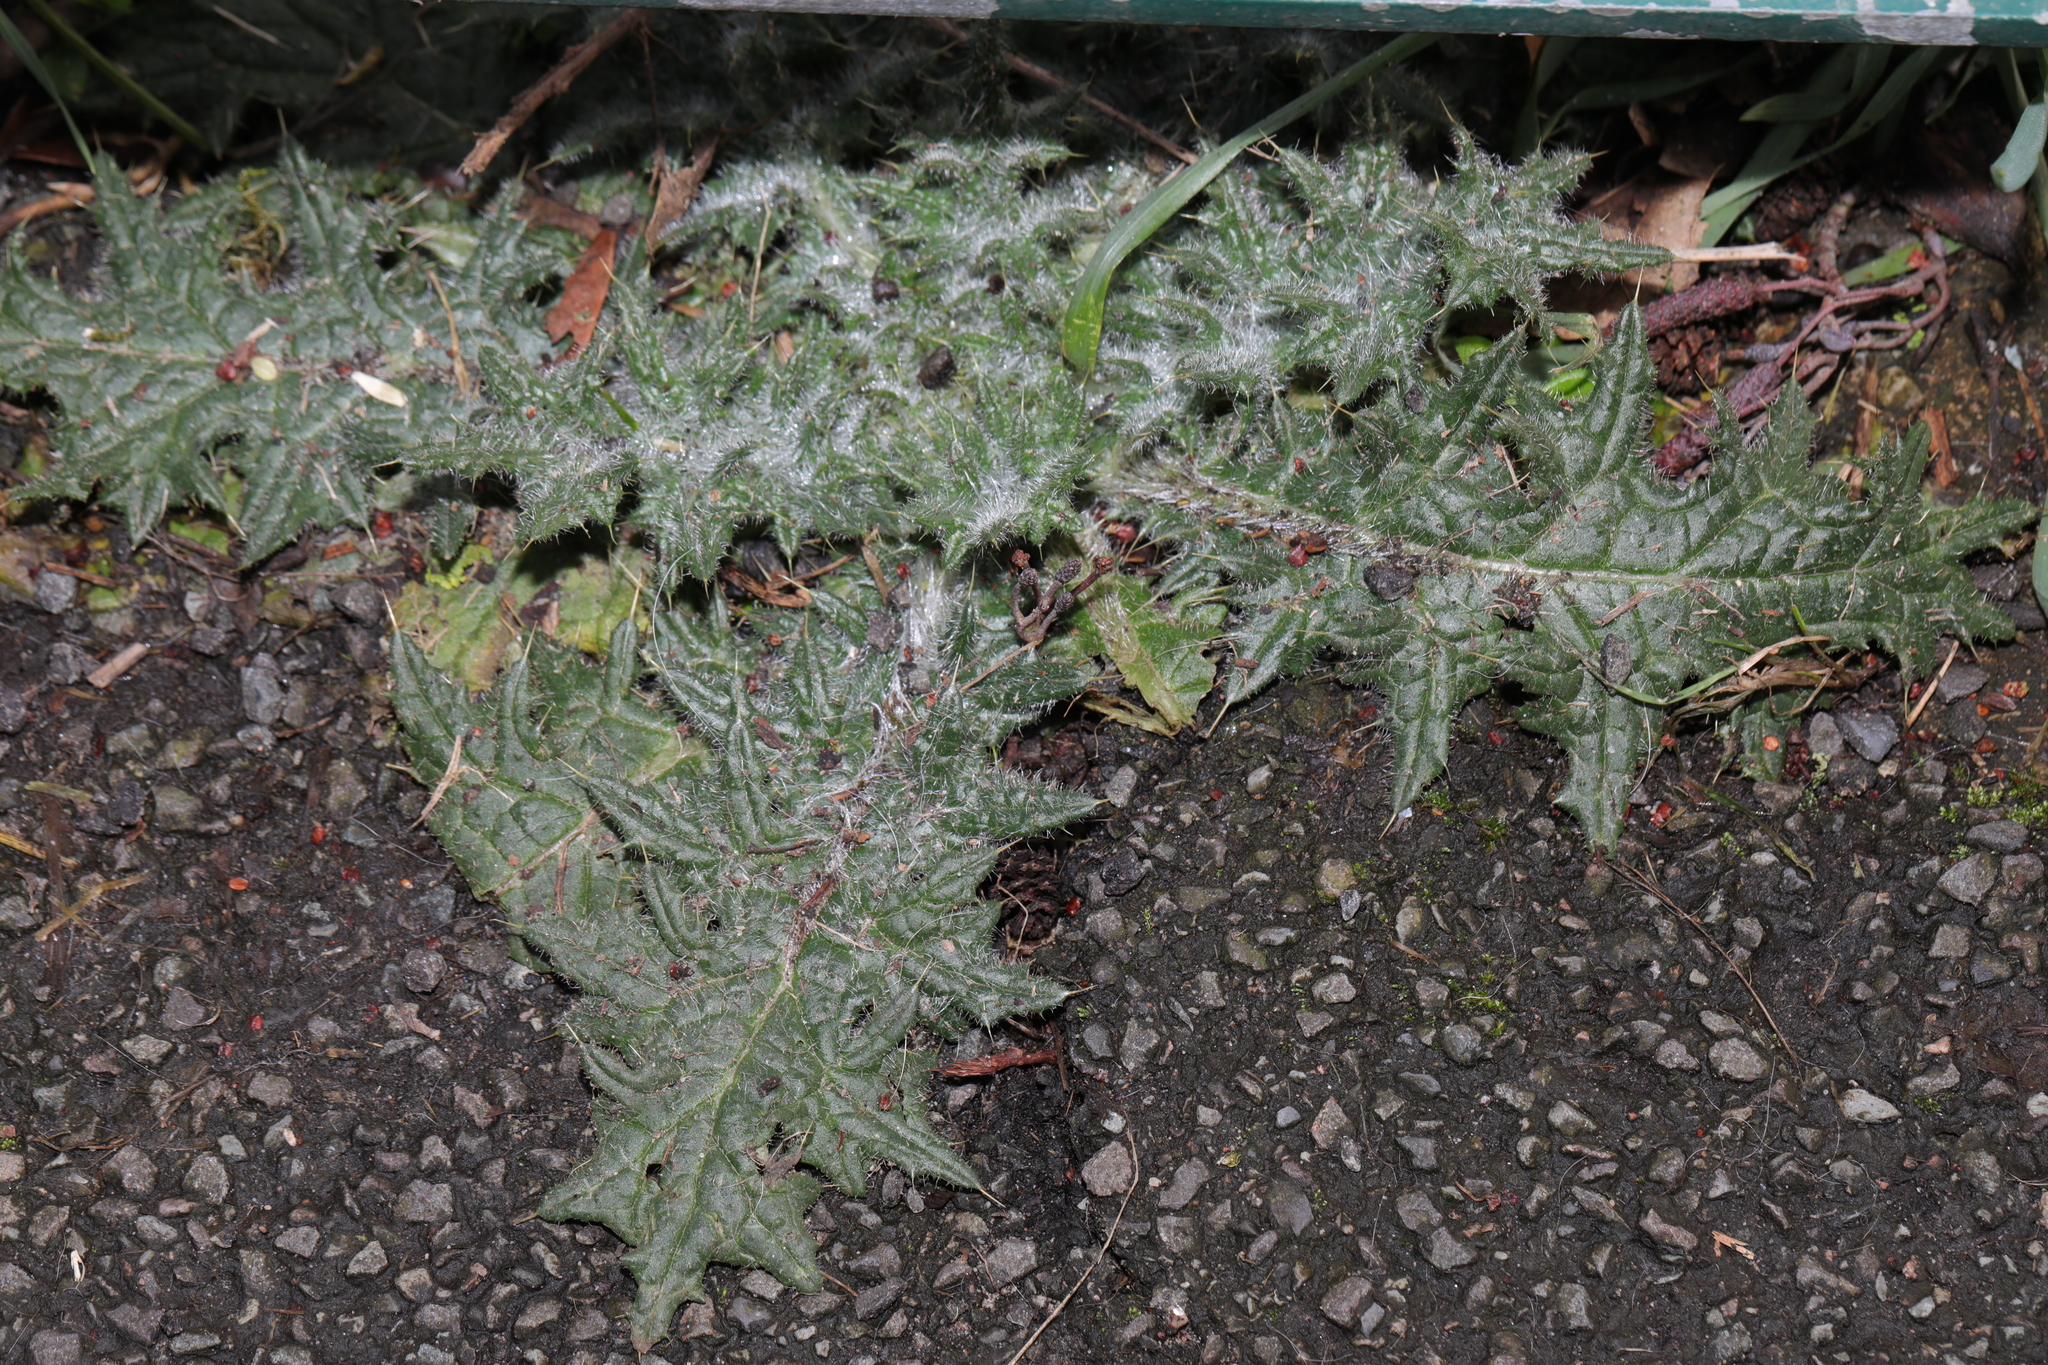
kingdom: Plantae
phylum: Tracheophyta
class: Magnoliopsida
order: Asterales
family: Asteraceae
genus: Cirsium
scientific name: Cirsium vulgare
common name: Bull thistle
